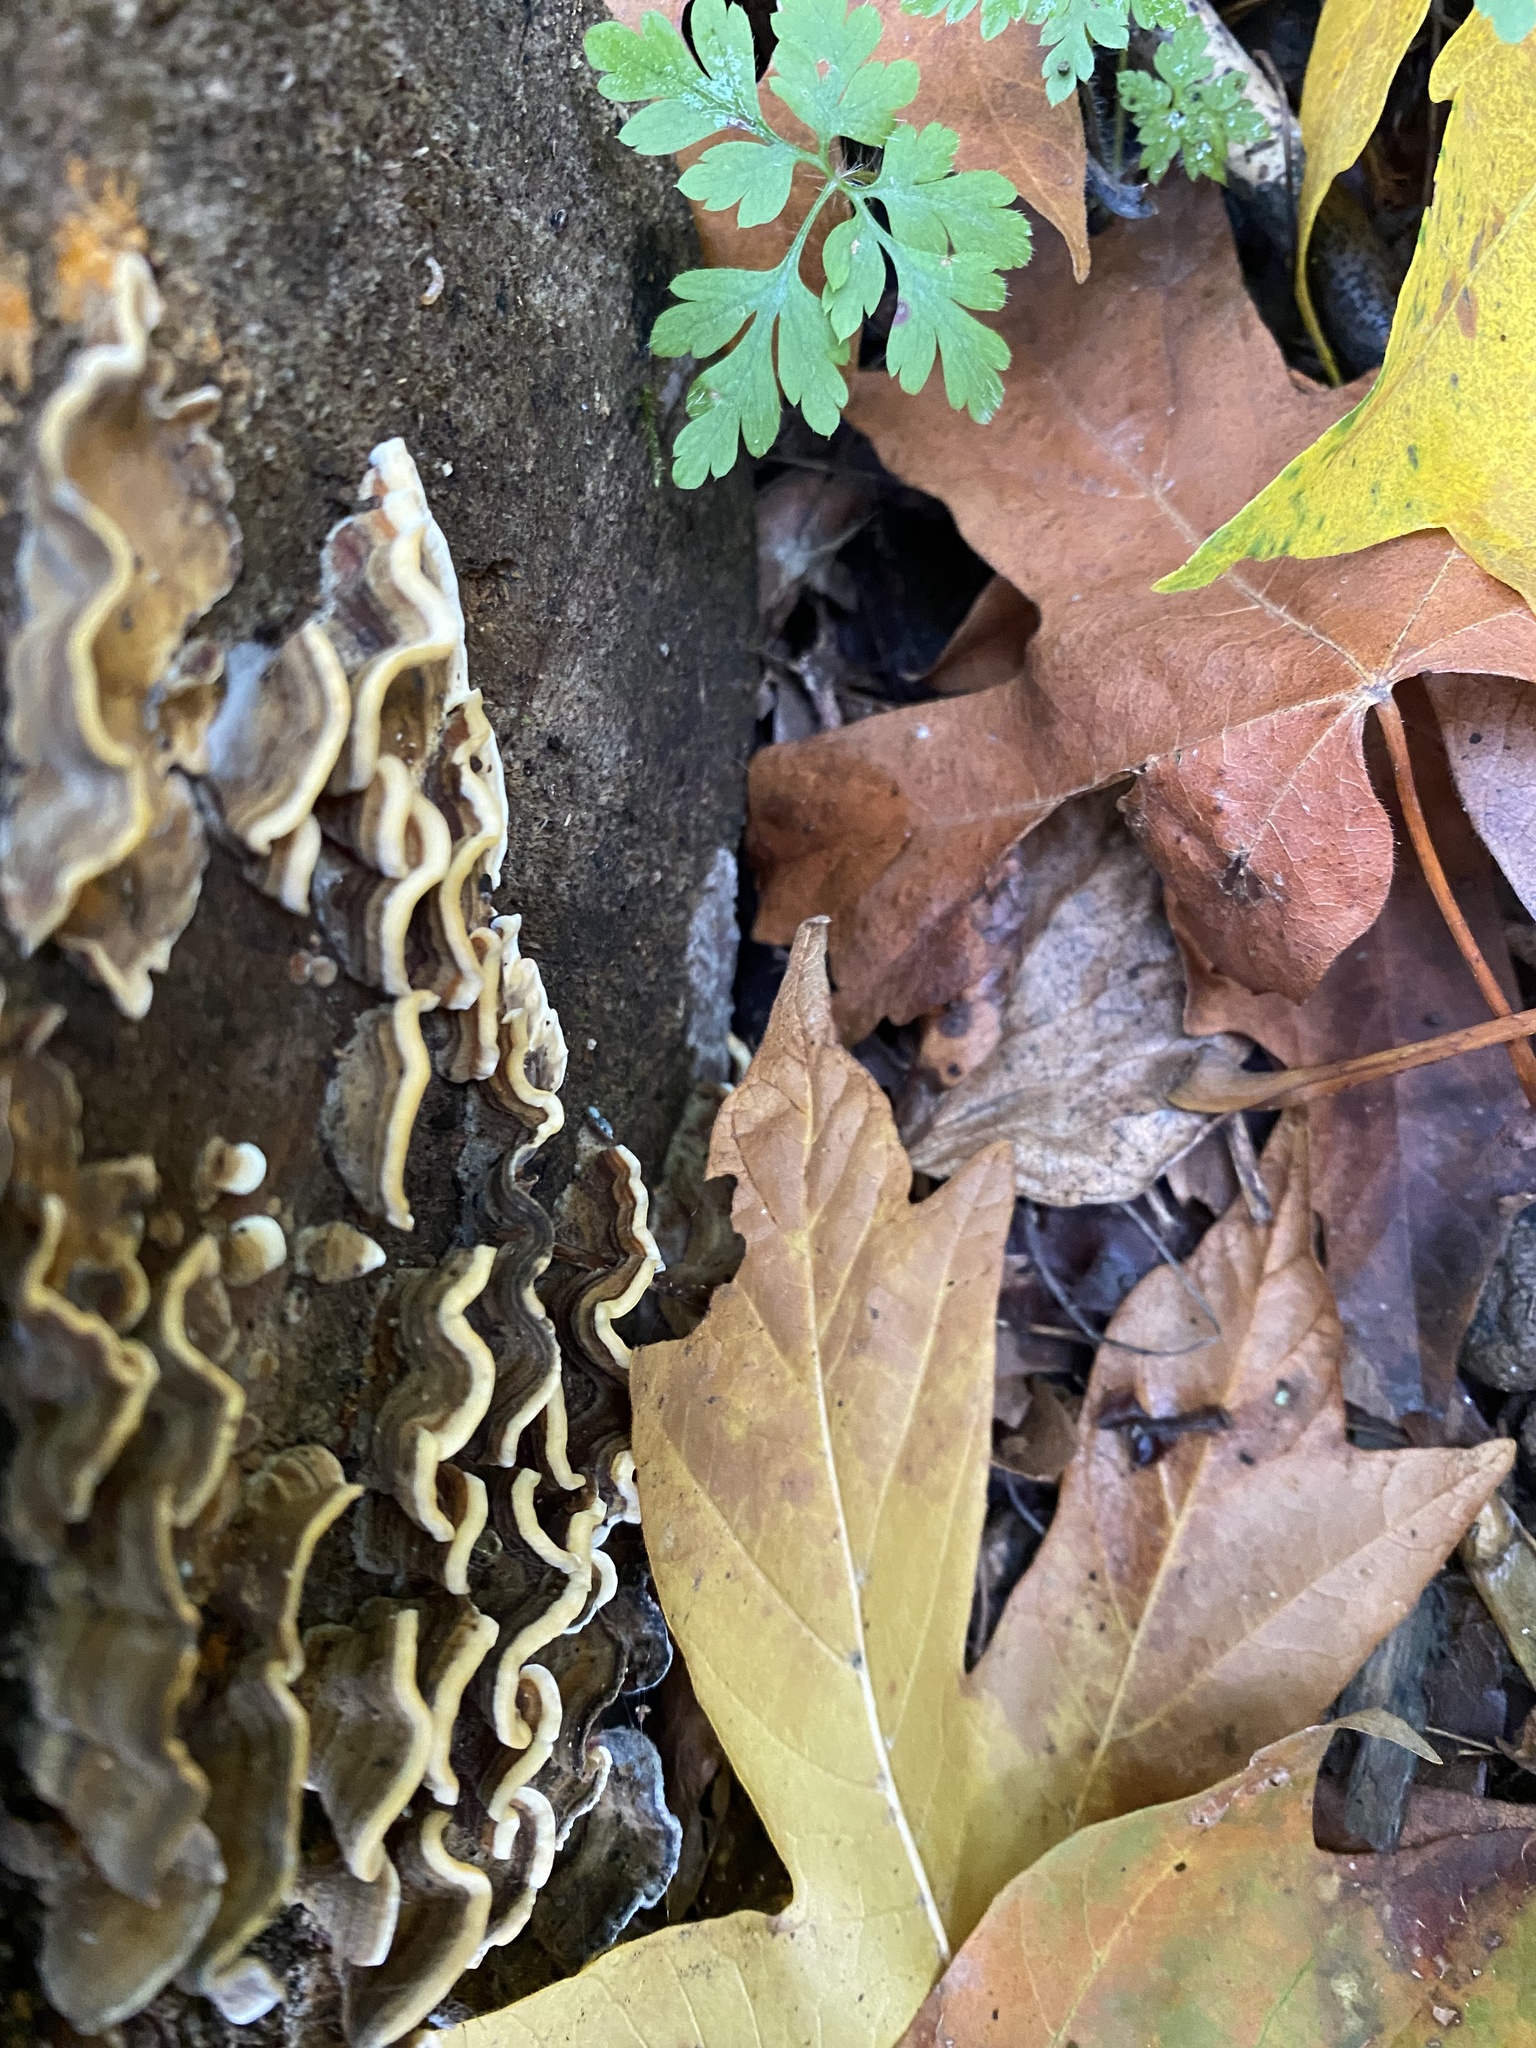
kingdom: Fungi
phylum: Basidiomycota
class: Agaricomycetes
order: Polyporales
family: Polyporaceae
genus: Trametes
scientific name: Trametes versicolor
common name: Turkeytail
